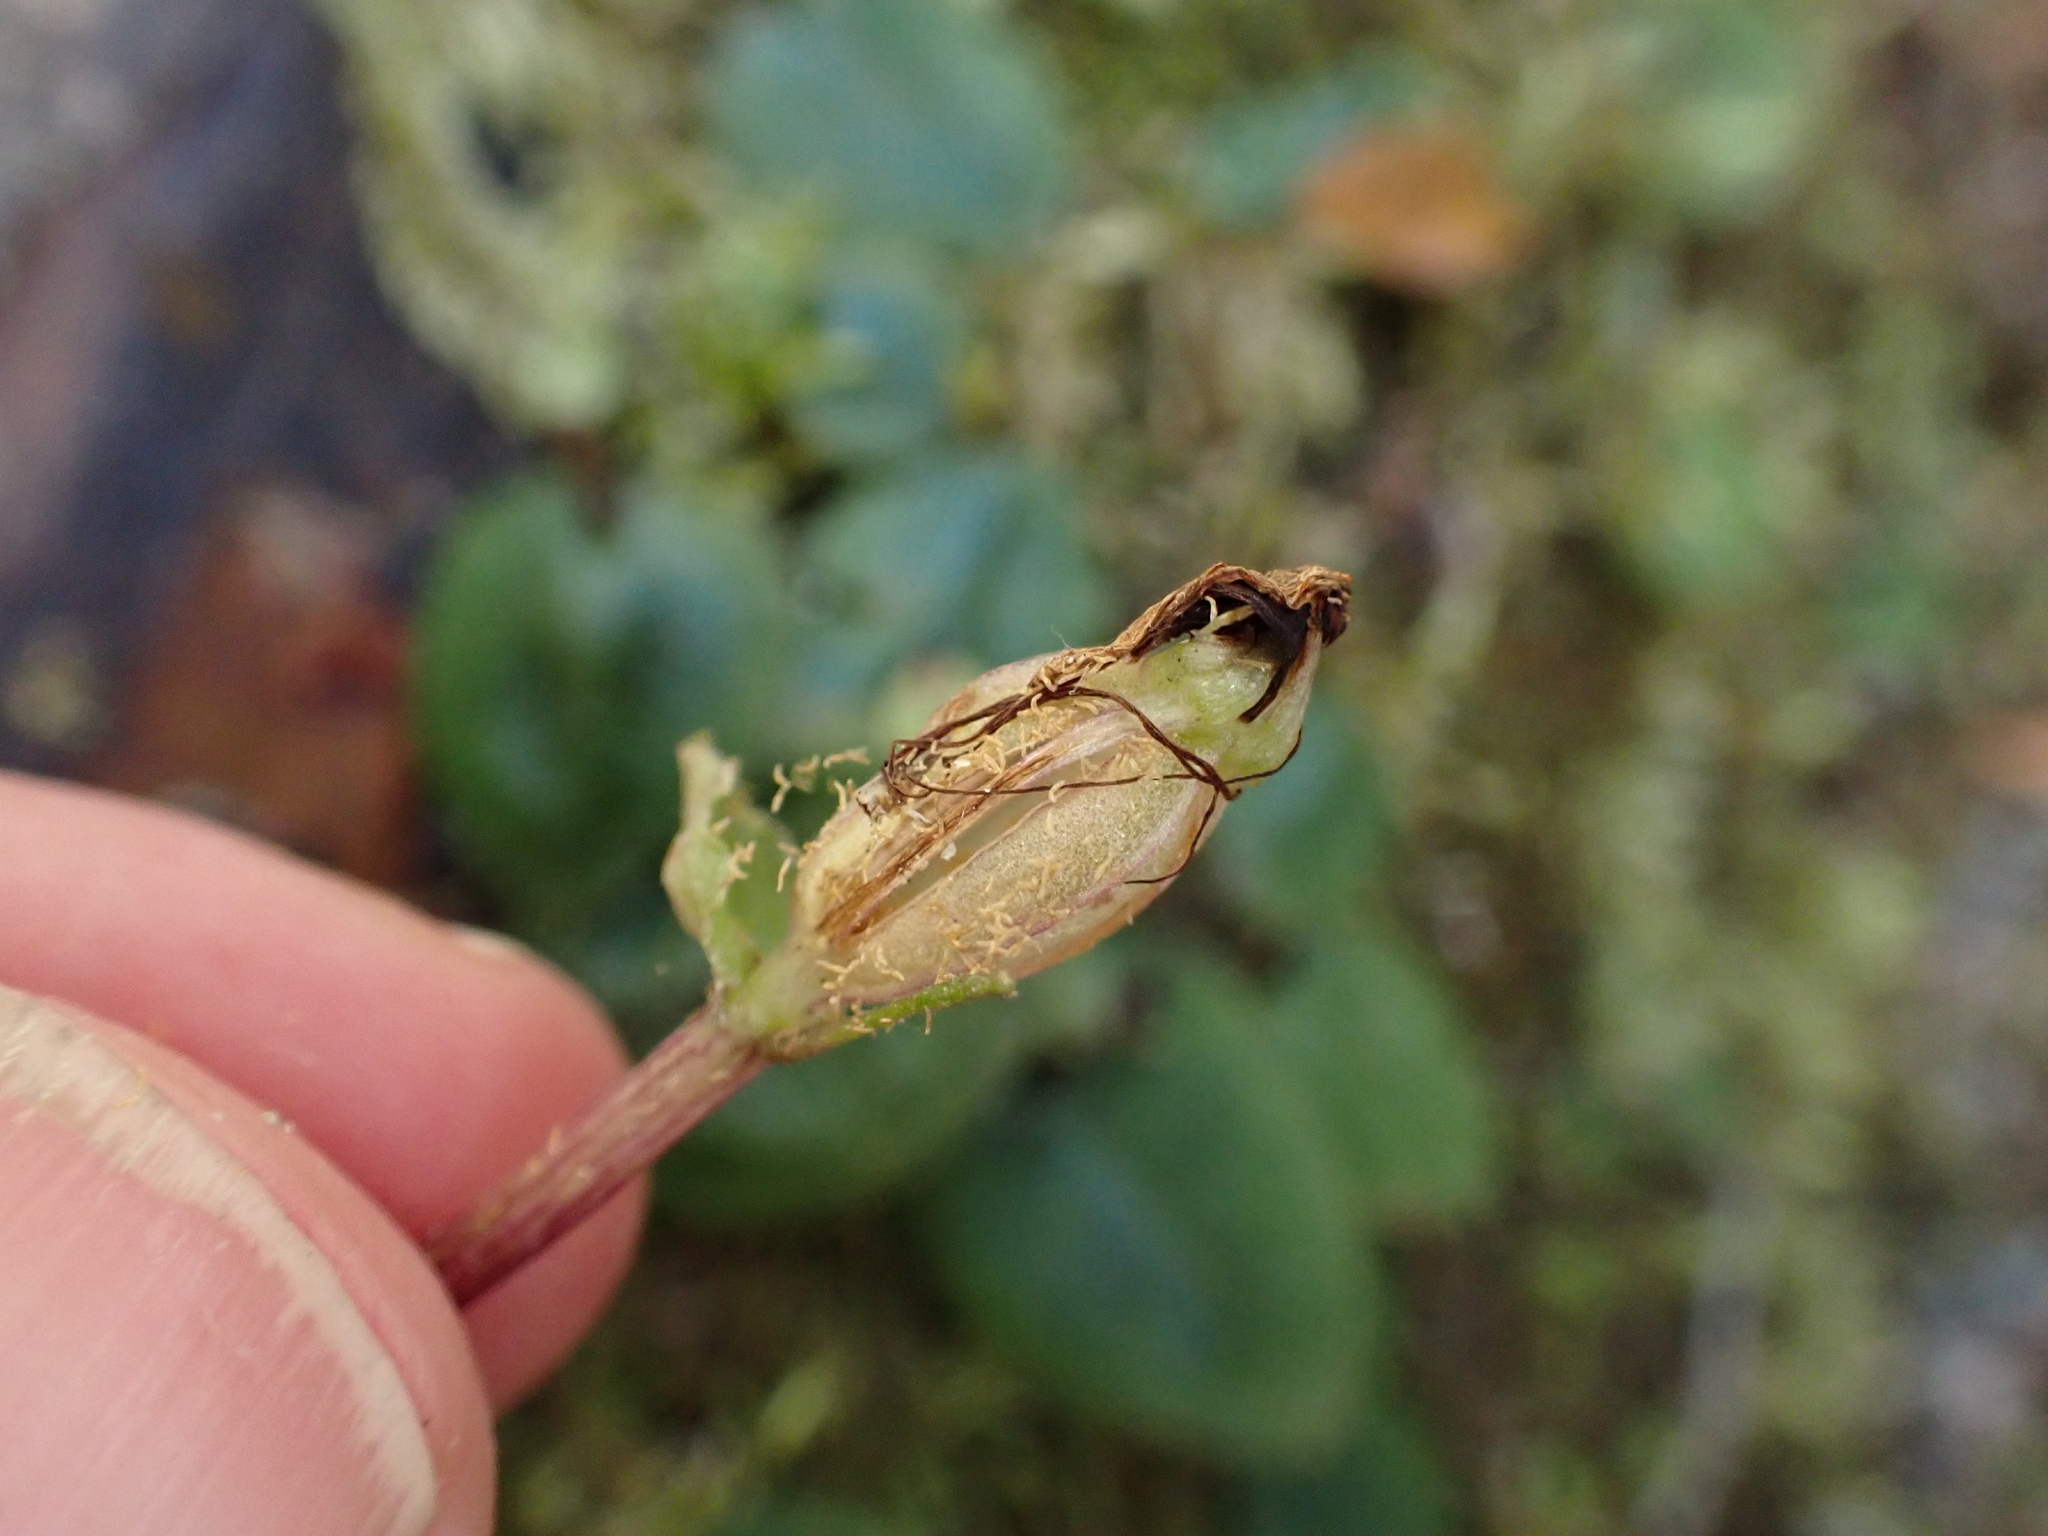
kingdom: Plantae
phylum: Tracheophyta
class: Liliopsida
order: Asparagales
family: Orchidaceae
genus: Corybas
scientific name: Corybas oblongus
